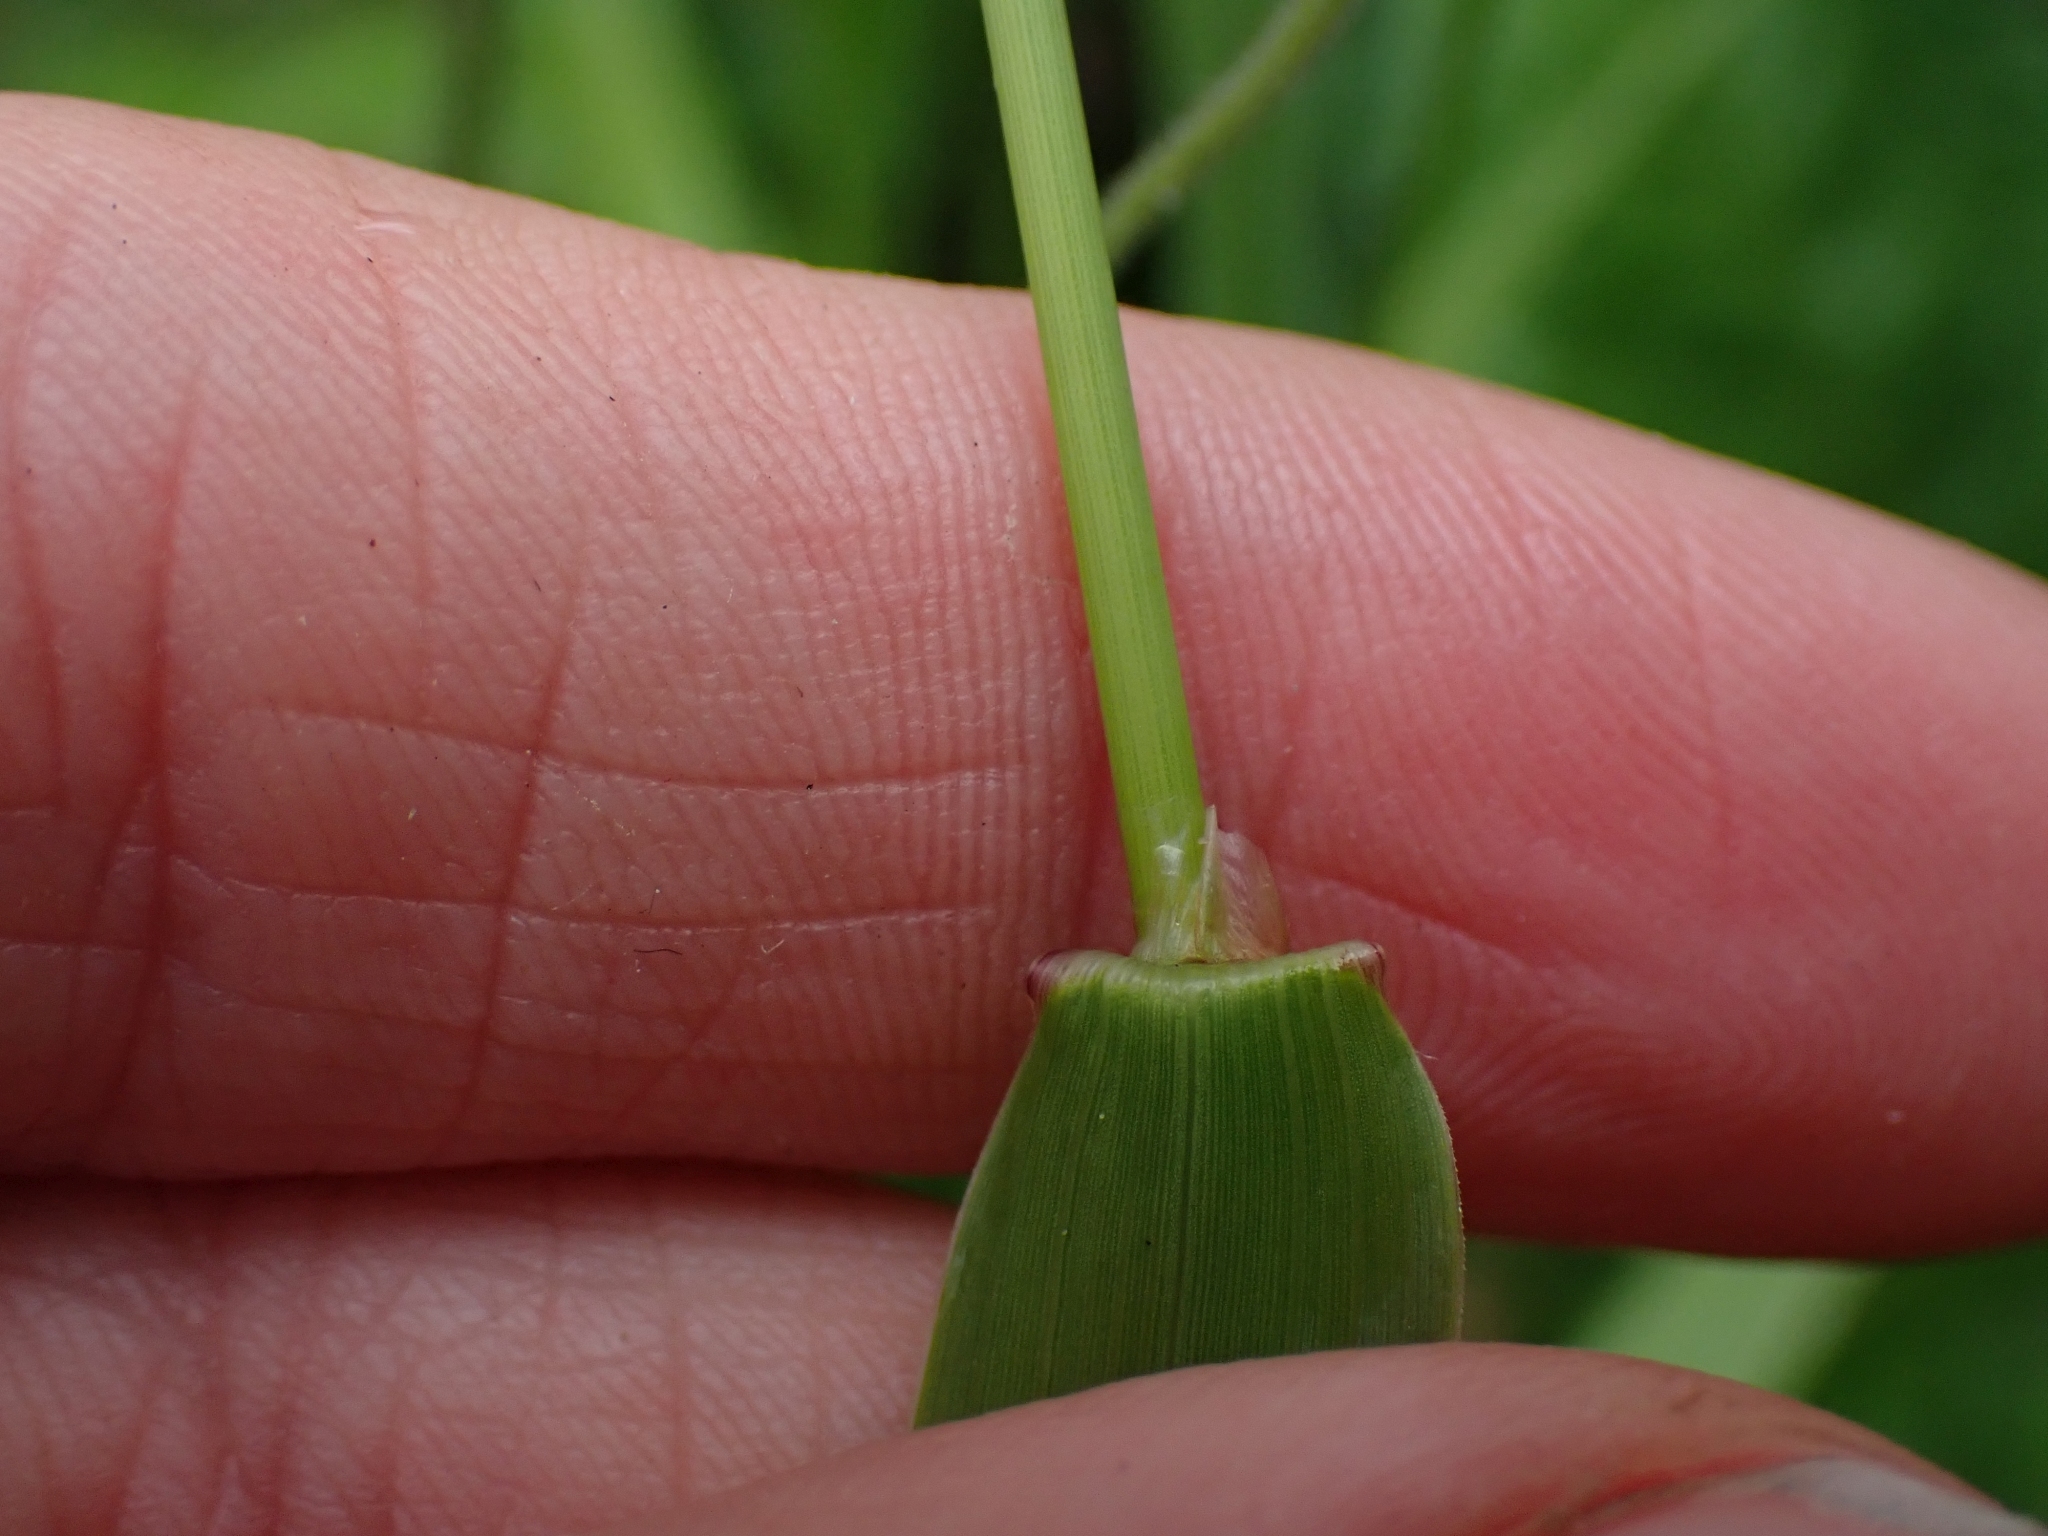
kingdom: Plantae
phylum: Tracheophyta
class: Liliopsida
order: Poales
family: Poaceae
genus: Phleum
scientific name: Phleum pratense
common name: Timothy grass
